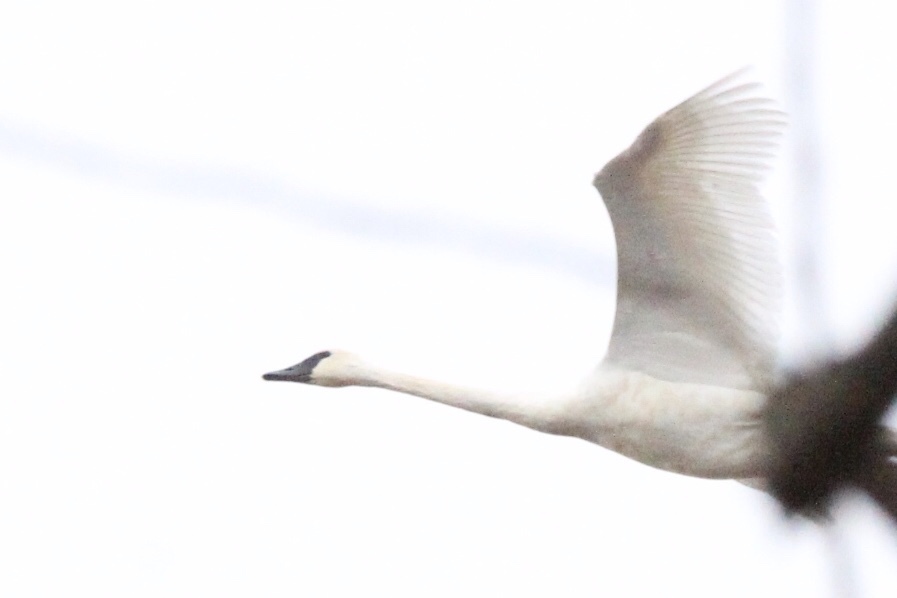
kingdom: Animalia
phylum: Chordata
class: Aves
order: Anseriformes
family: Anatidae
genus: Cygnus
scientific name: Cygnus buccinator
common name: Trumpeter swan
